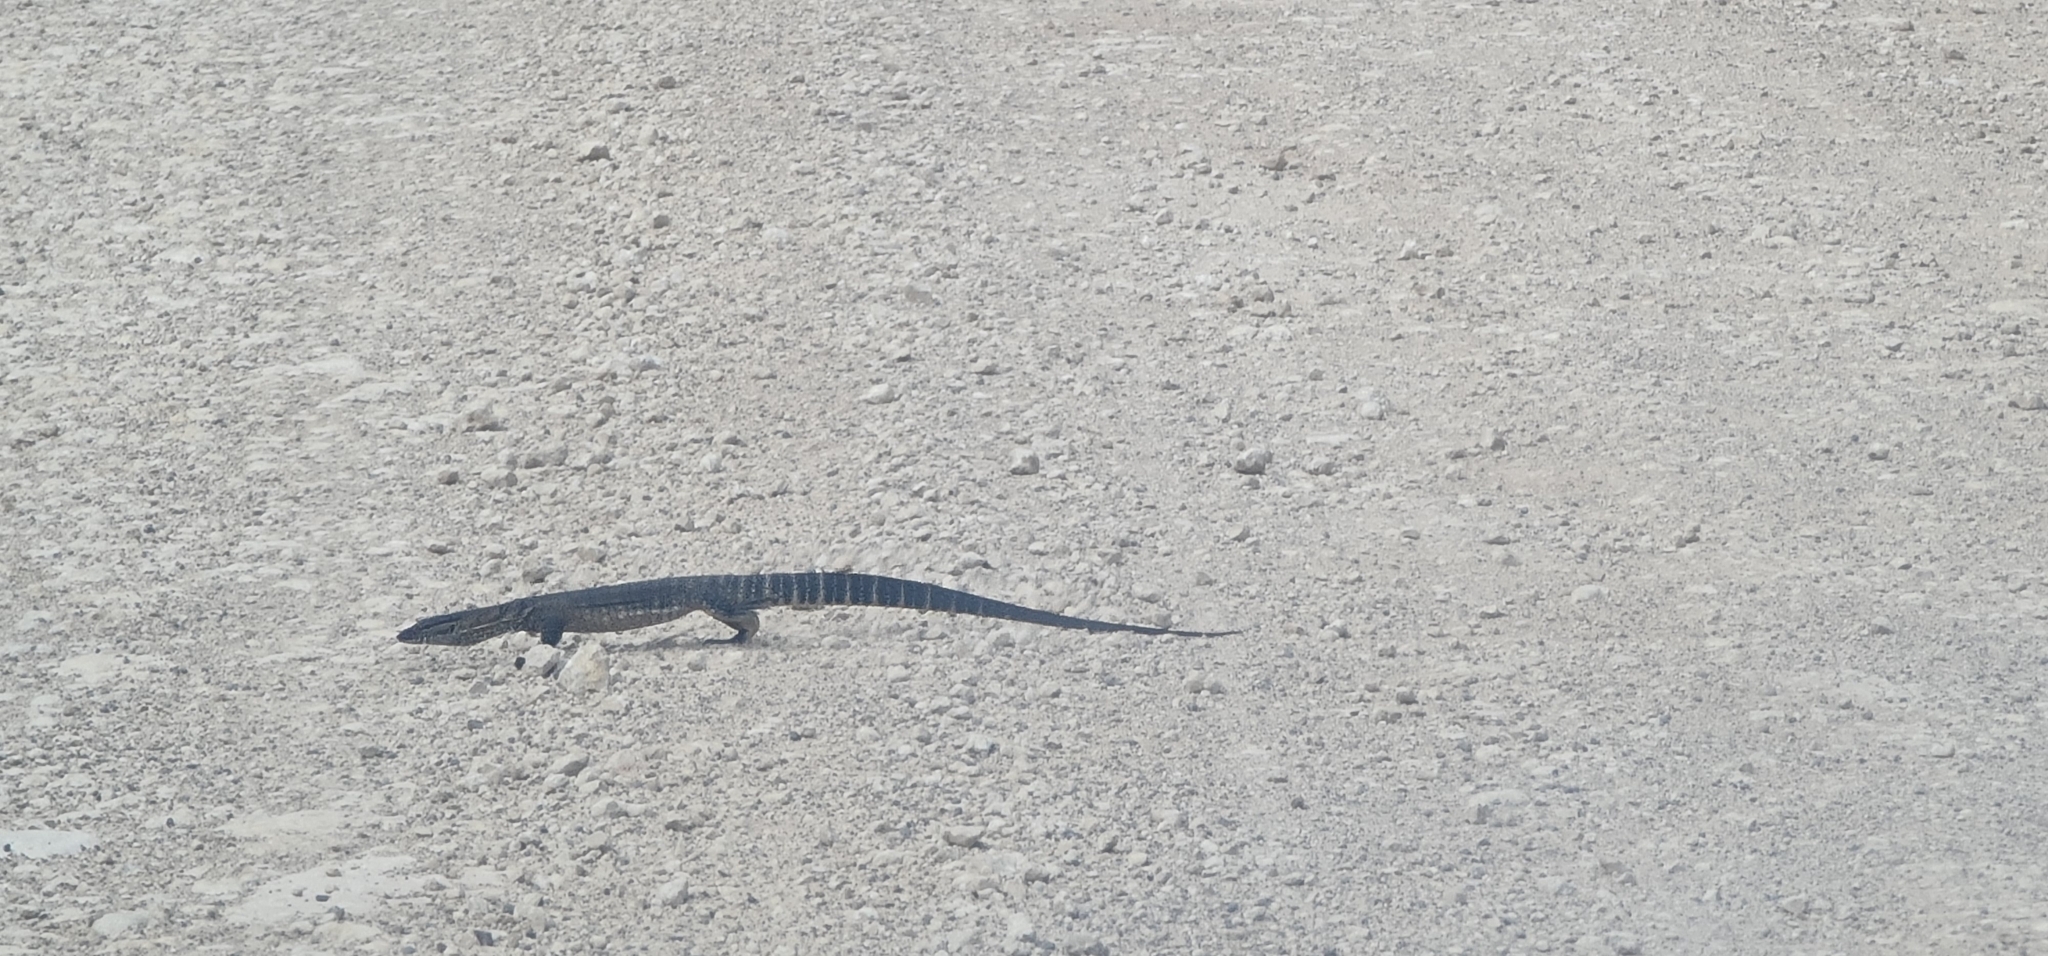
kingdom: Animalia
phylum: Chordata
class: Squamata
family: Varanidae
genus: Varanus
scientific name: Varanus rosenbergi
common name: Heath monitor
